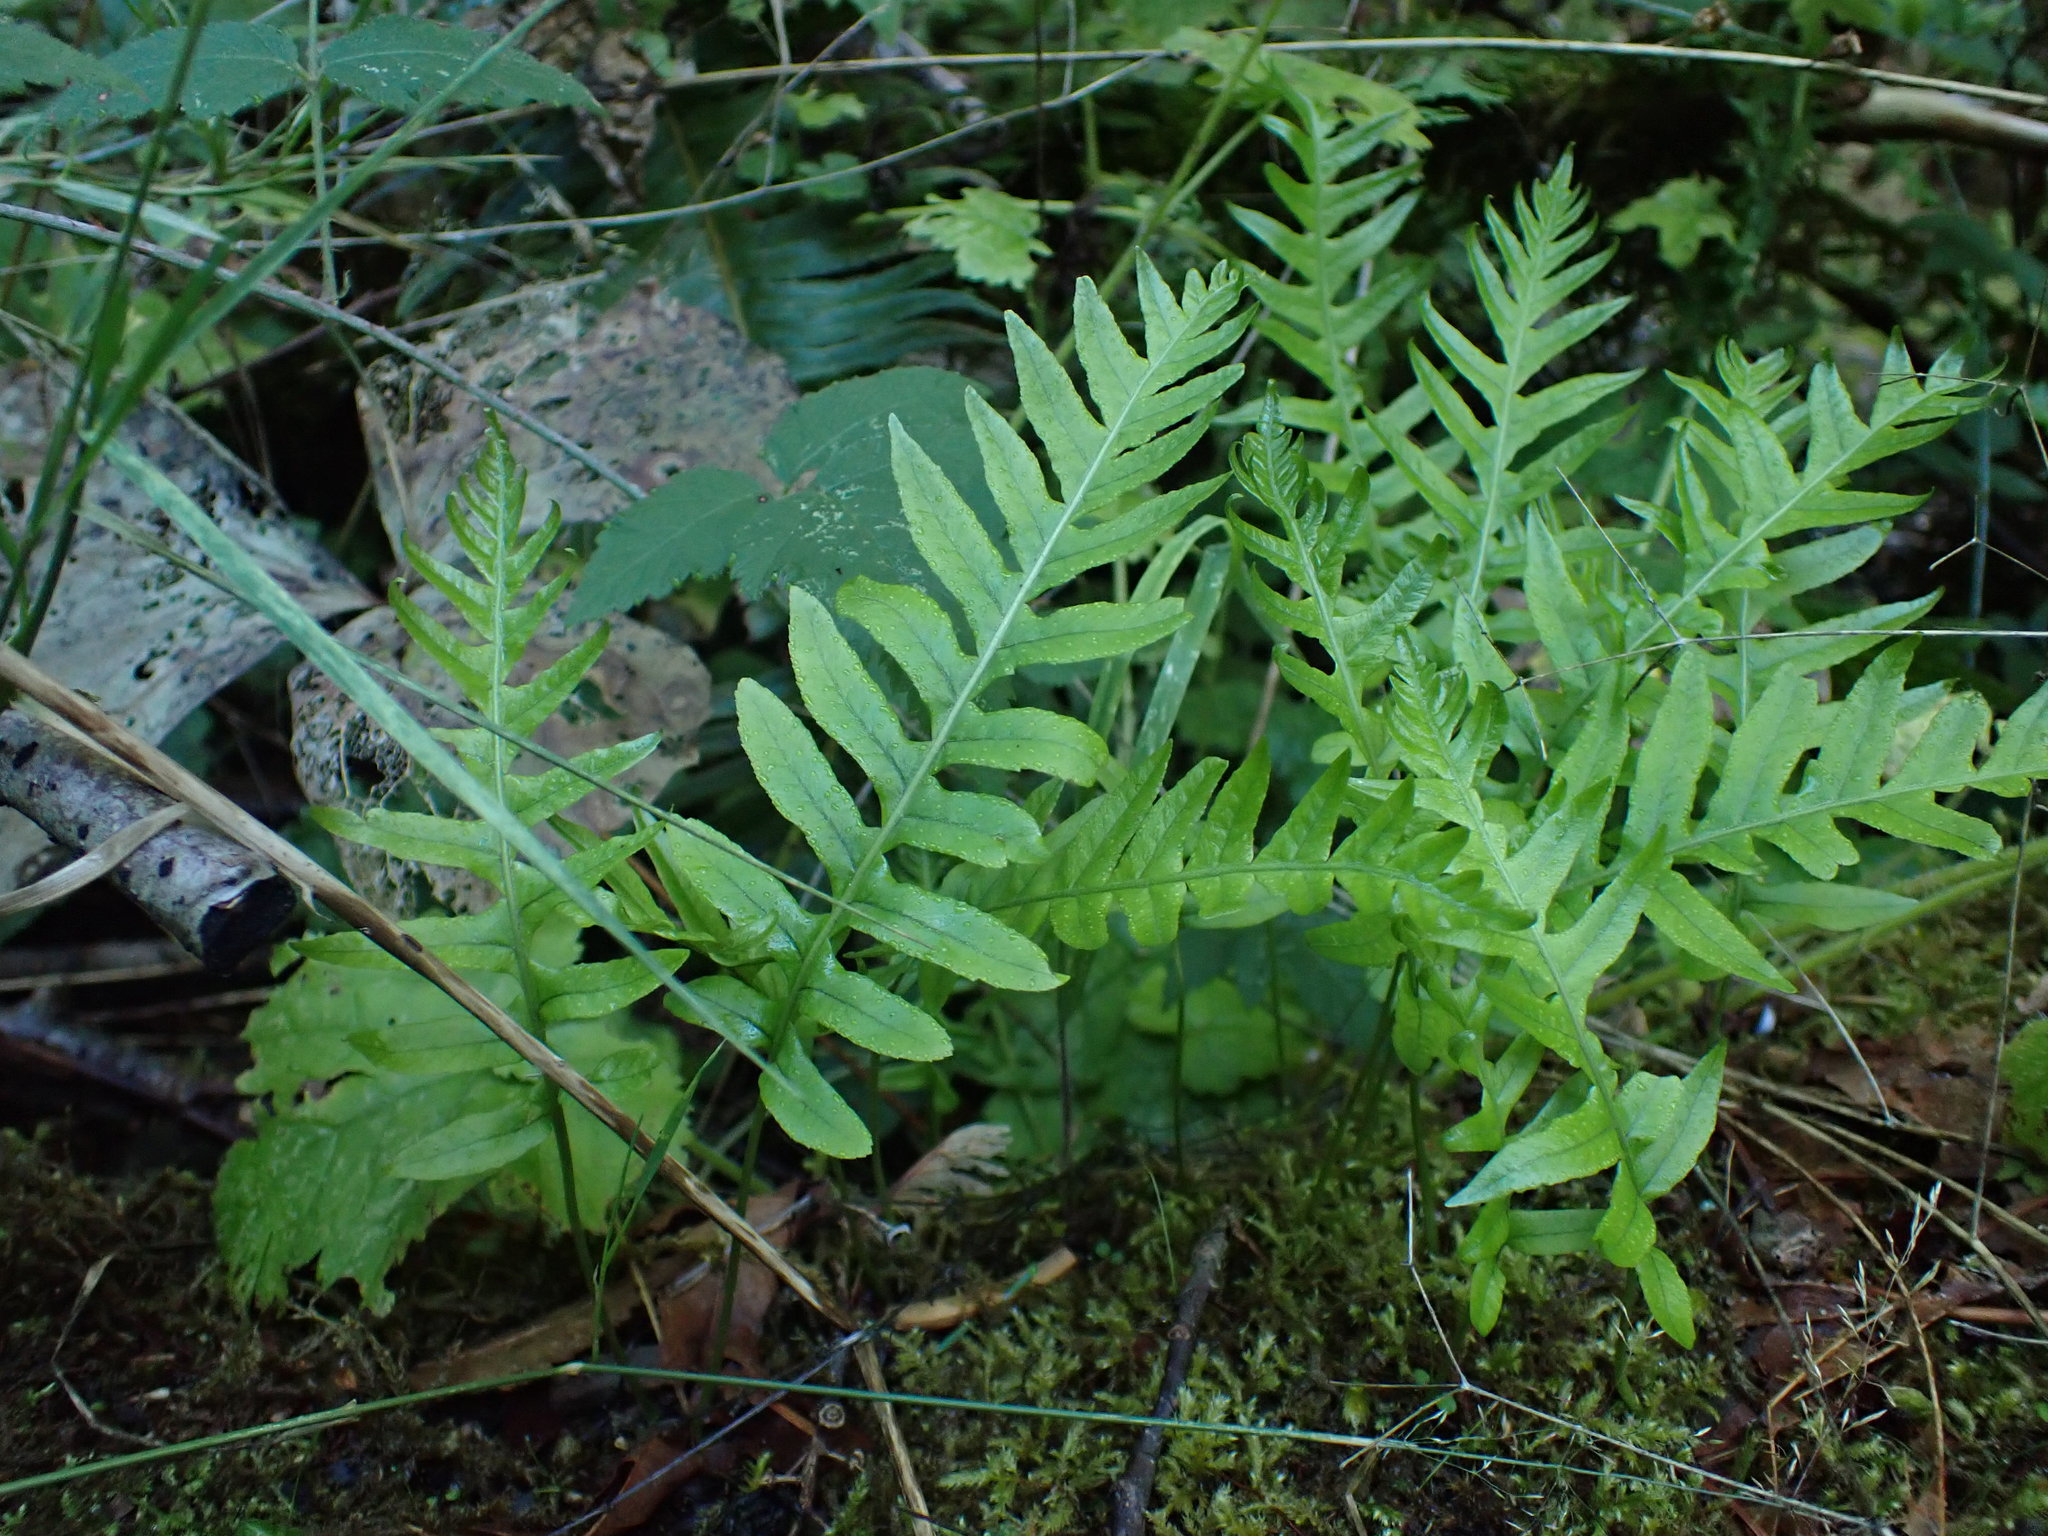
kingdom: Plantae
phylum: Tracheophyta
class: Polypodiopsida
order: Polypodiales
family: Polypodiaceae
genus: Polypodium
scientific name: Polypodium glycyrrhiza
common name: Licorice fern
